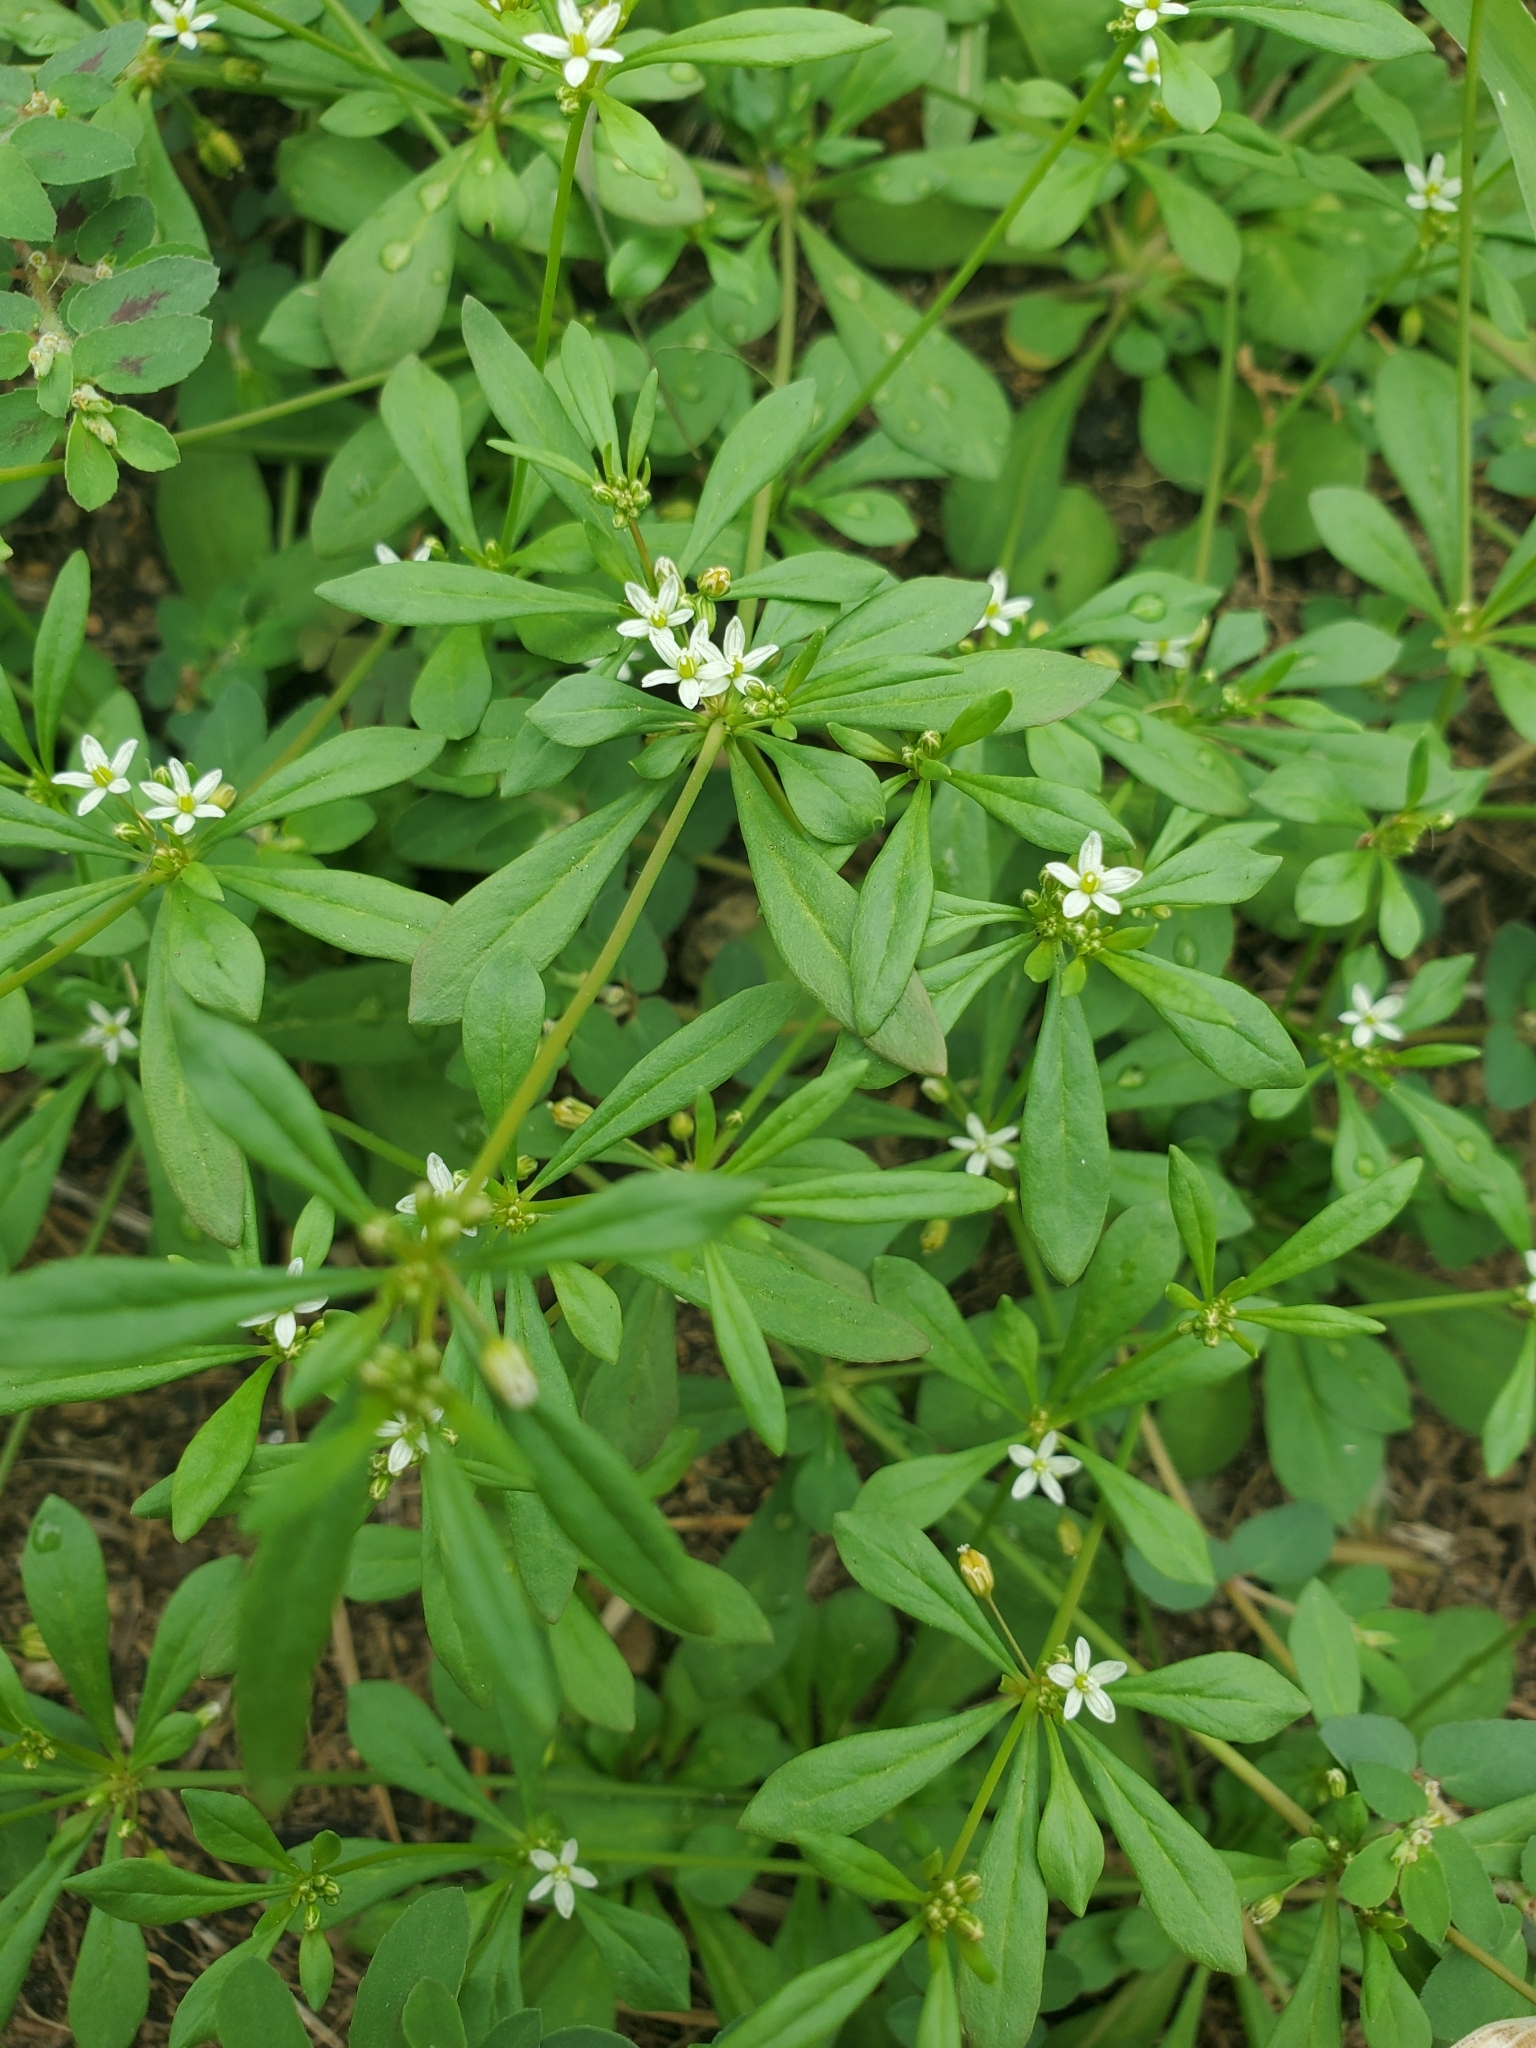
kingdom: Plantae
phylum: Tracheophyta
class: Magnoliopsida
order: Caryophyllales
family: Molluginaceae
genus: Mollugo
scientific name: Mollugo verticillata
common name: Green carpetweed
